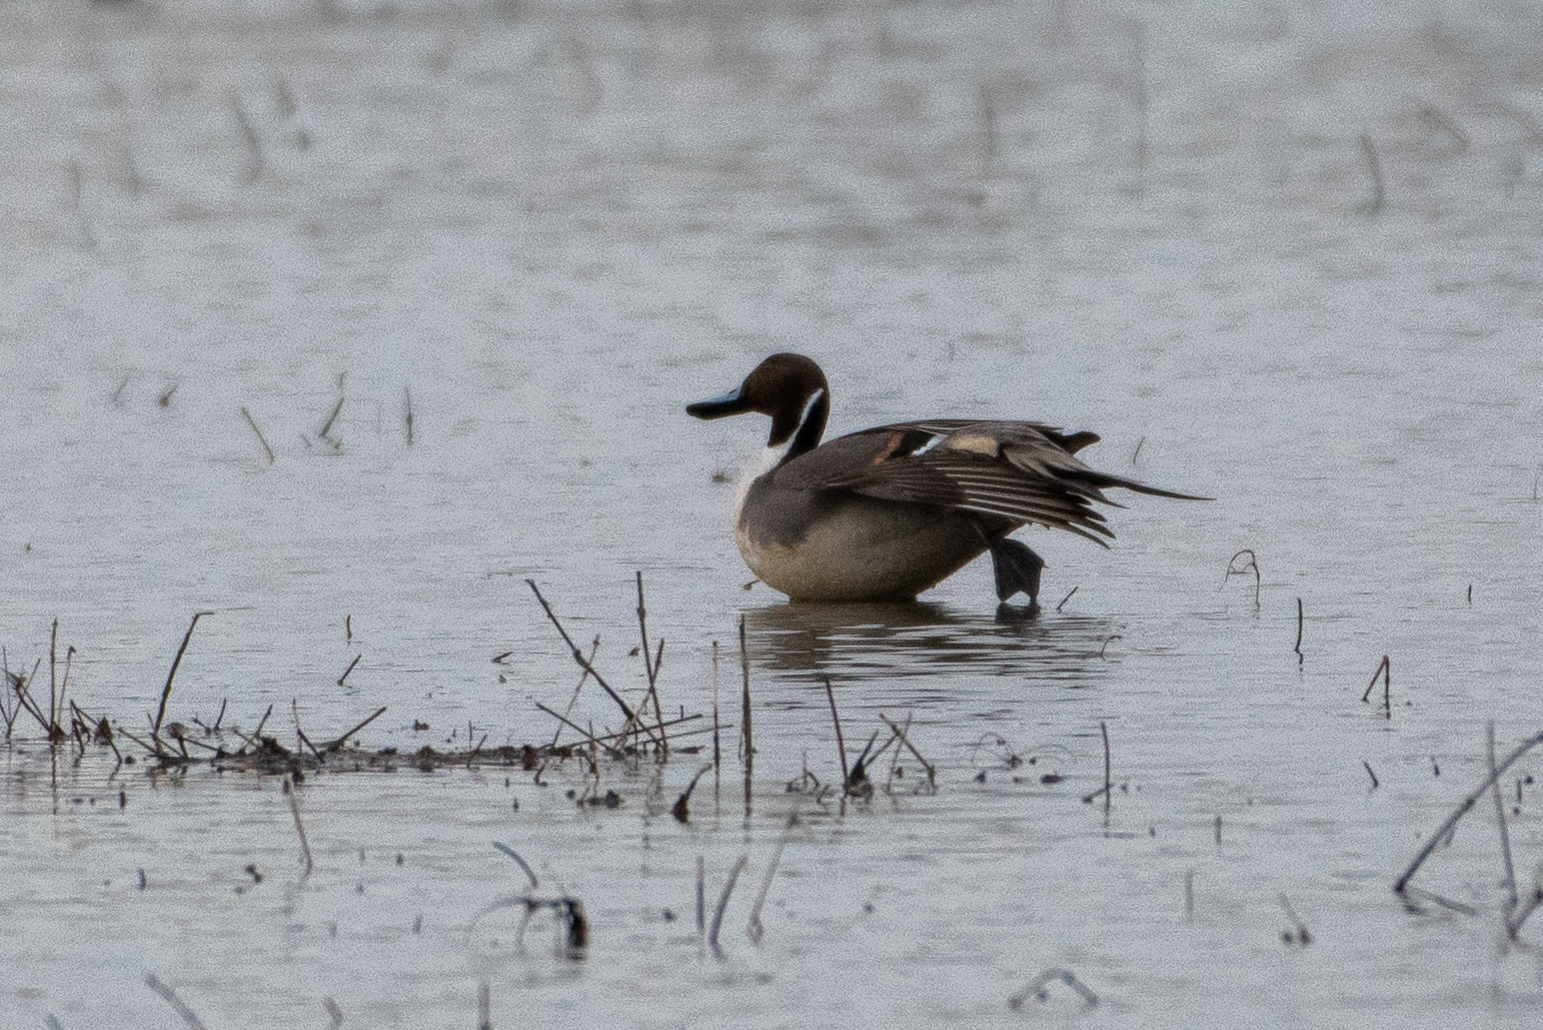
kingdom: Animalia
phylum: Chordata
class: Aves
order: Anseriformes
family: Anatidae
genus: Anas
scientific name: Anas acuta
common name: Northern pintail
